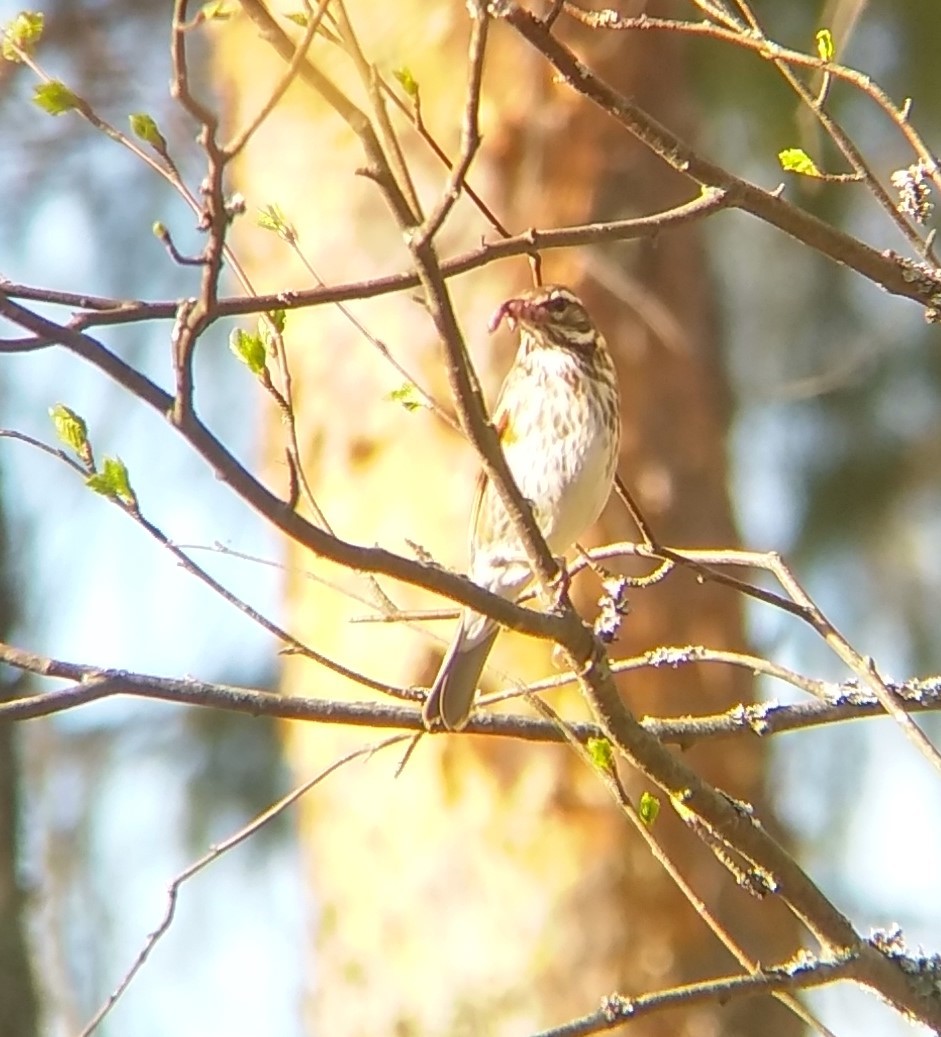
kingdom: Animalia
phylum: Chordata
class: Aves
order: Passeriformes
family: Turdidae
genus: Turdus
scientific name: Turdus iliacus
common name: Redwing
